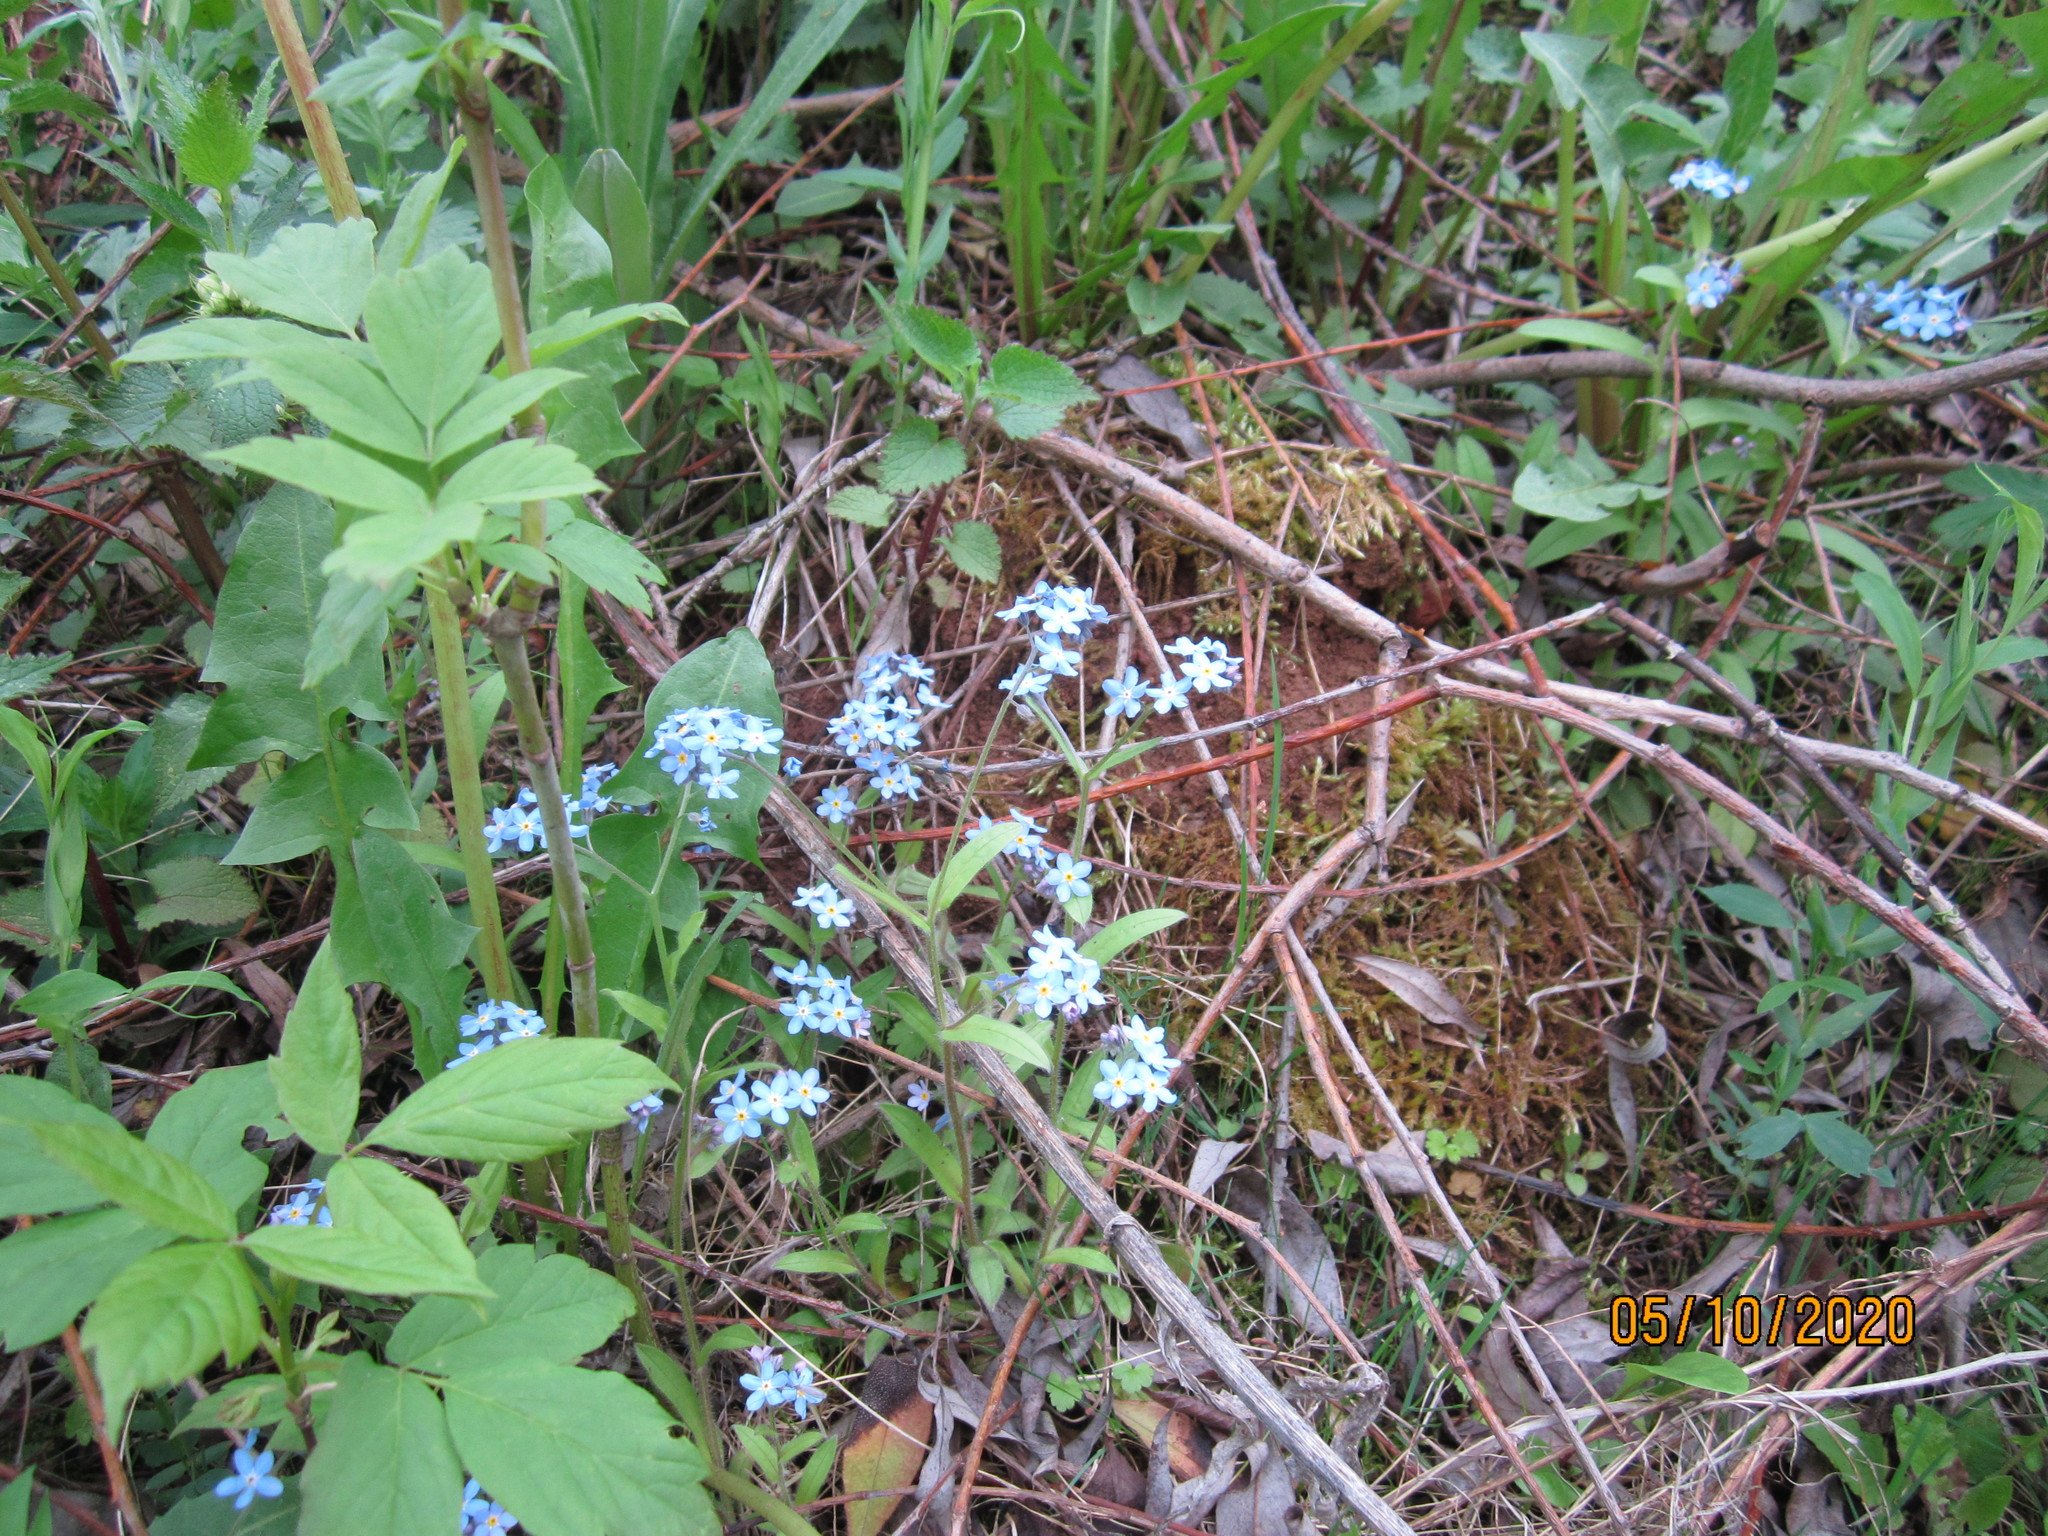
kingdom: Plantae
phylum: Tracheophyta
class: Magnoliopsida
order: Boraginales
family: Boraginaceae
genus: Myosotis
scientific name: Myosotis sylvatica
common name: Wood forget-me-not
